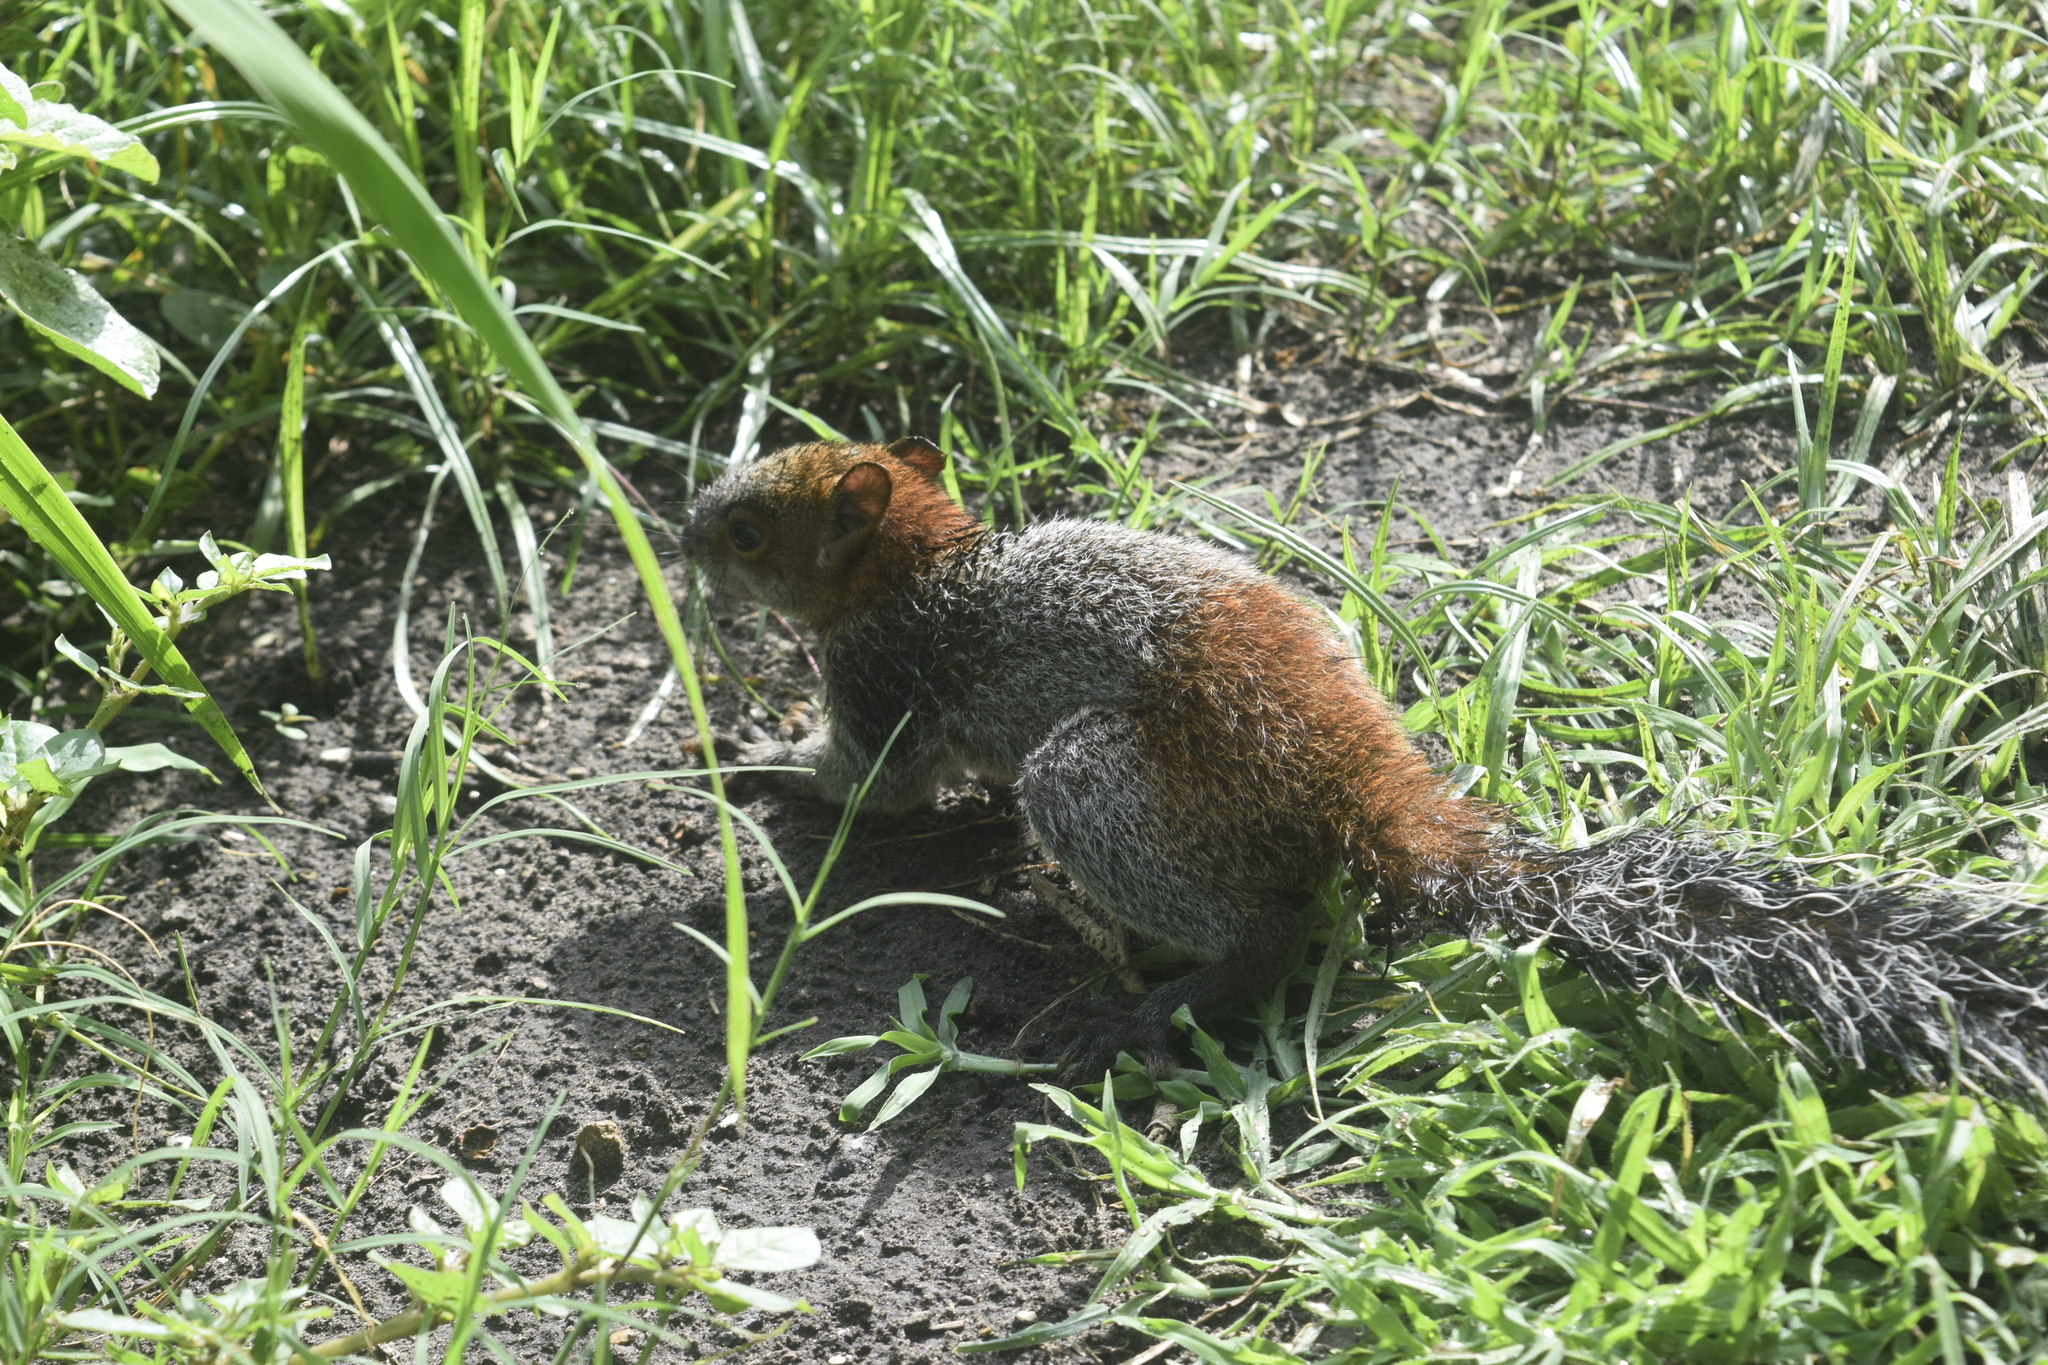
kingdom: Animalia
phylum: Chordata
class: Mammalia
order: Rodentia
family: Sciuridae
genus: Sciurus
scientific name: Sciurus aureogaster
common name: Red-bellied squirrel
